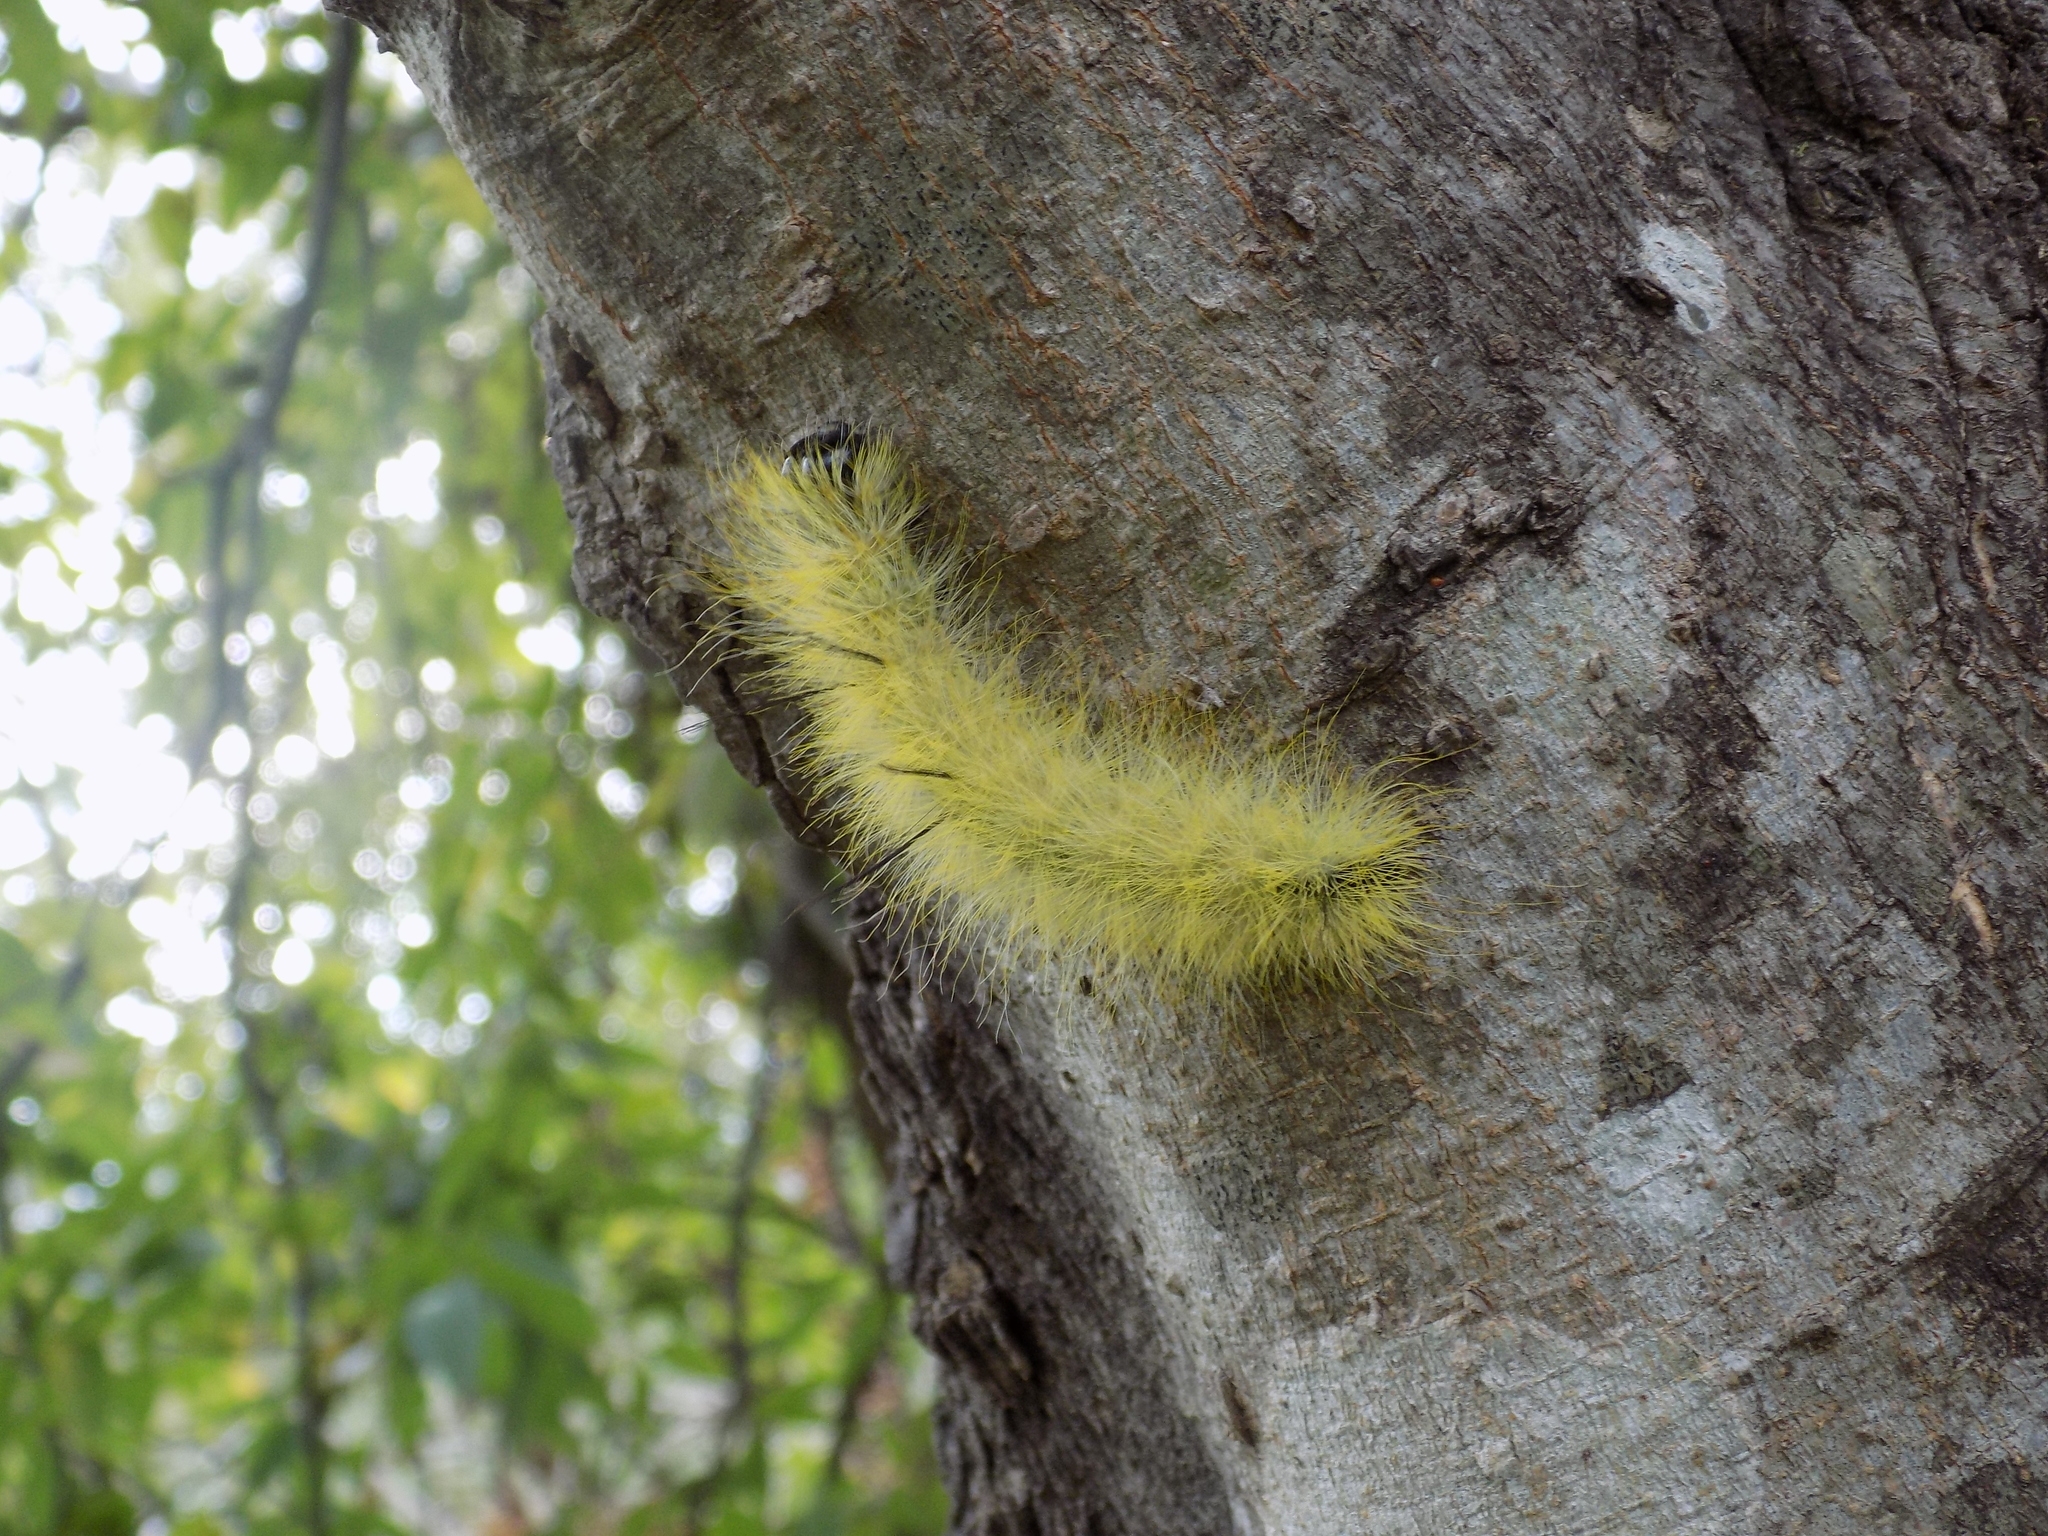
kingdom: Animalia
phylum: Arthropoda
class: Insecta
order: Lepidoptera
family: Noctuidae
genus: Acronicta
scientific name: Acronicta americana
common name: American dagger
